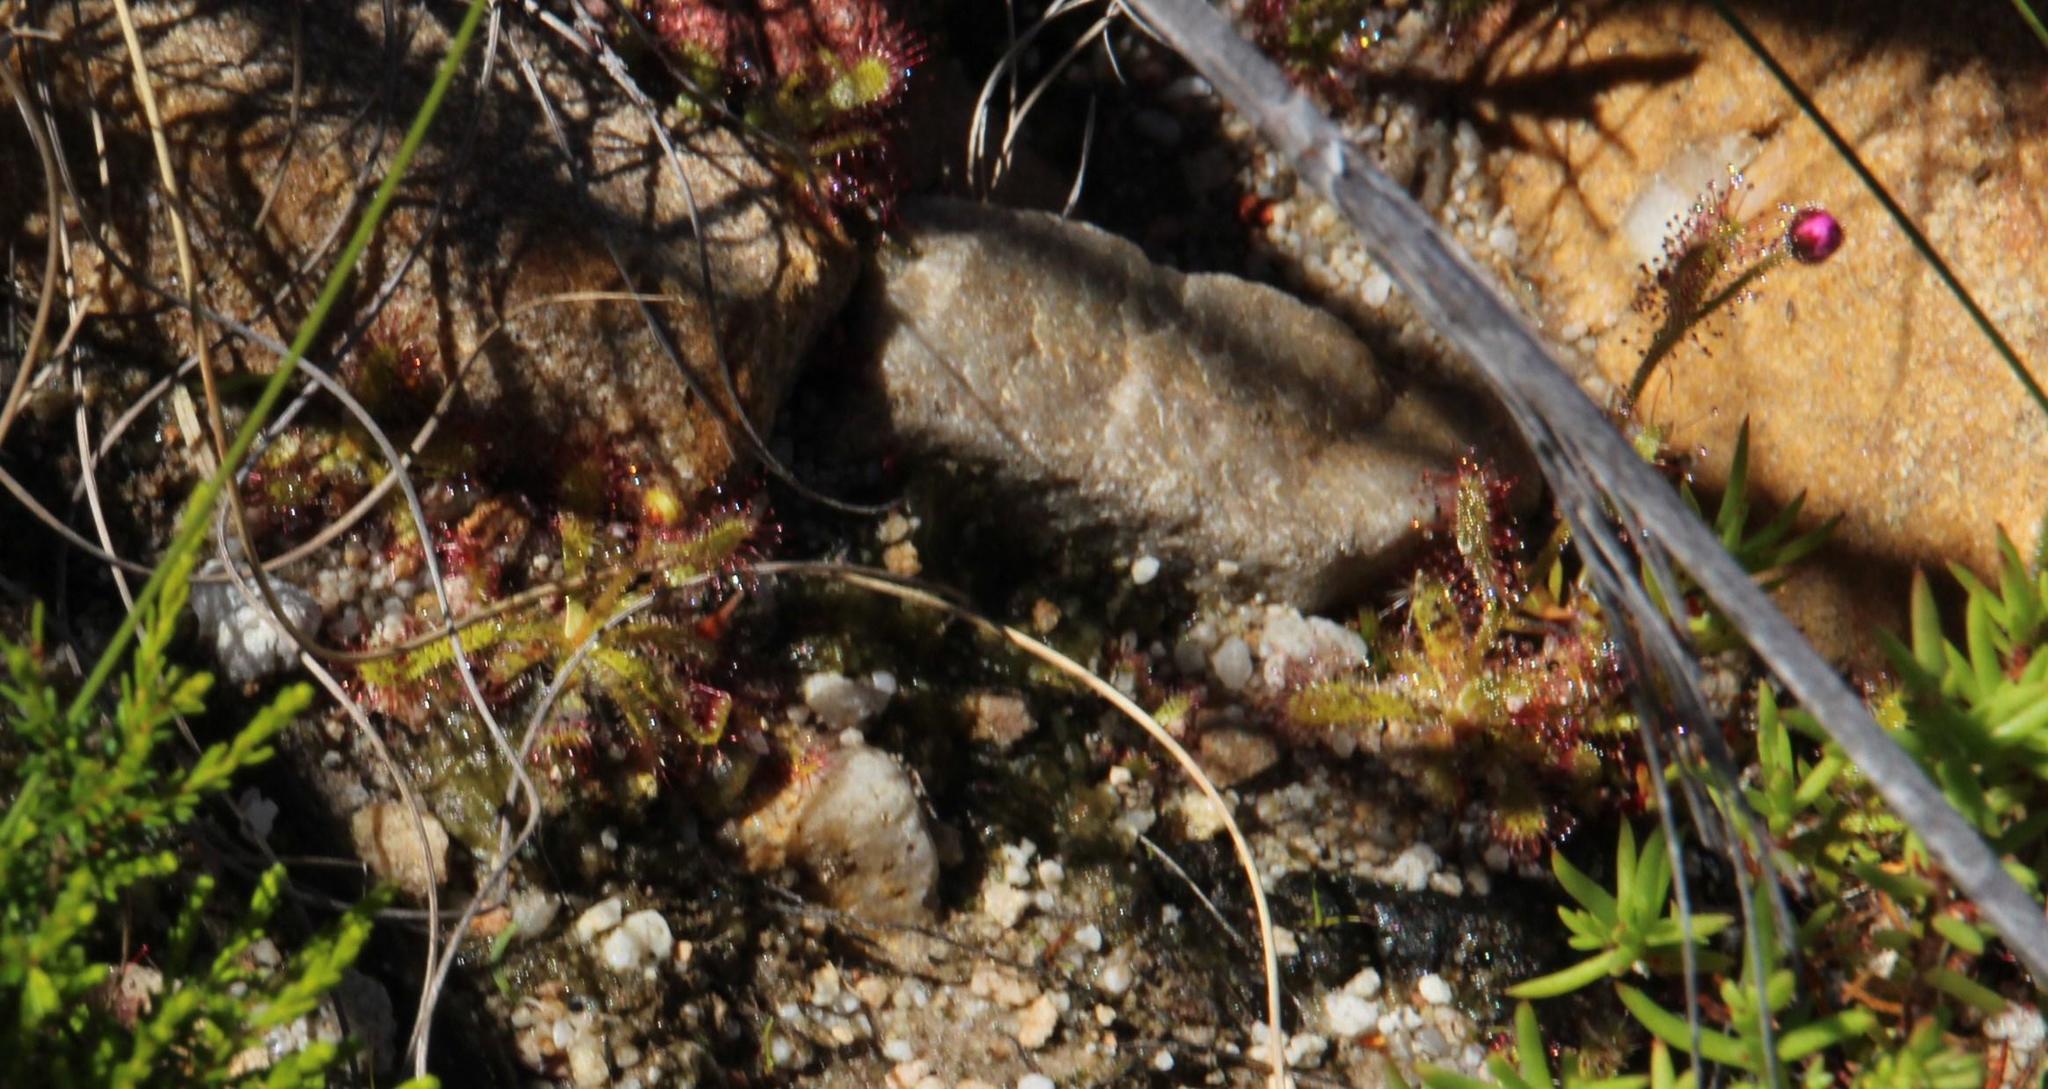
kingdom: Plantae
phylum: Tracheophyta
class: Magnoliopsida
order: Caryophyllales
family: Droseraceae
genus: Drosera
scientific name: Drosera cistiflora
